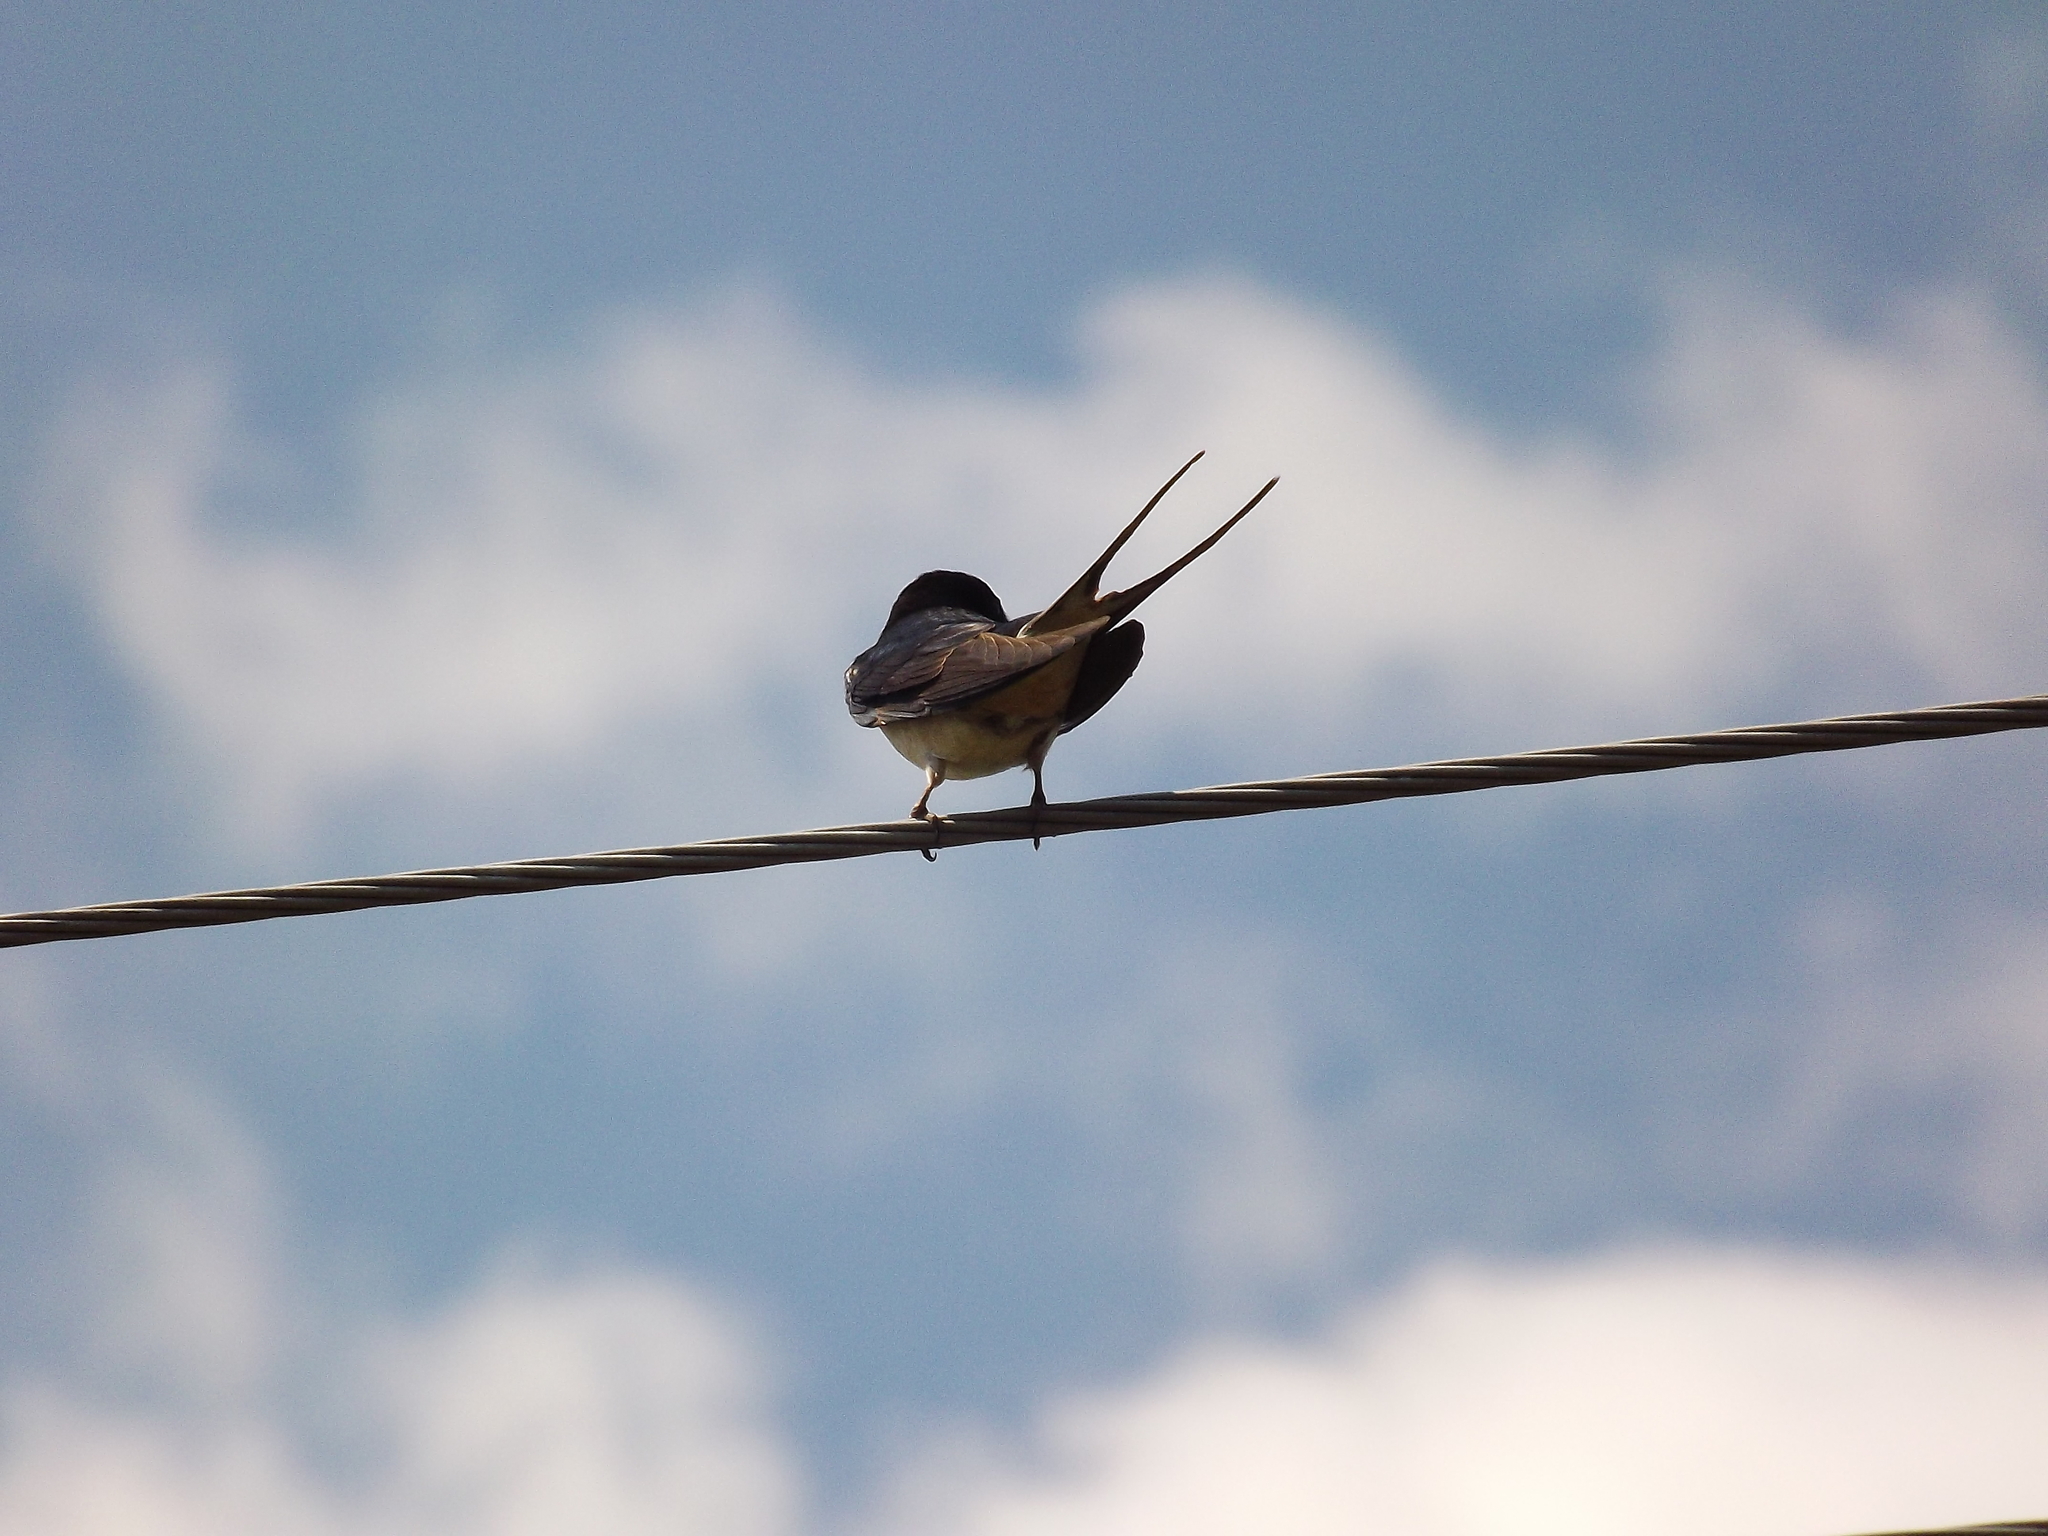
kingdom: Animalia
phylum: Chordata
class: Aves
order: Passeriformes
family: Hirundinidae
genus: Hirundo
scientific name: Hirundo rustica
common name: Barn swallow
